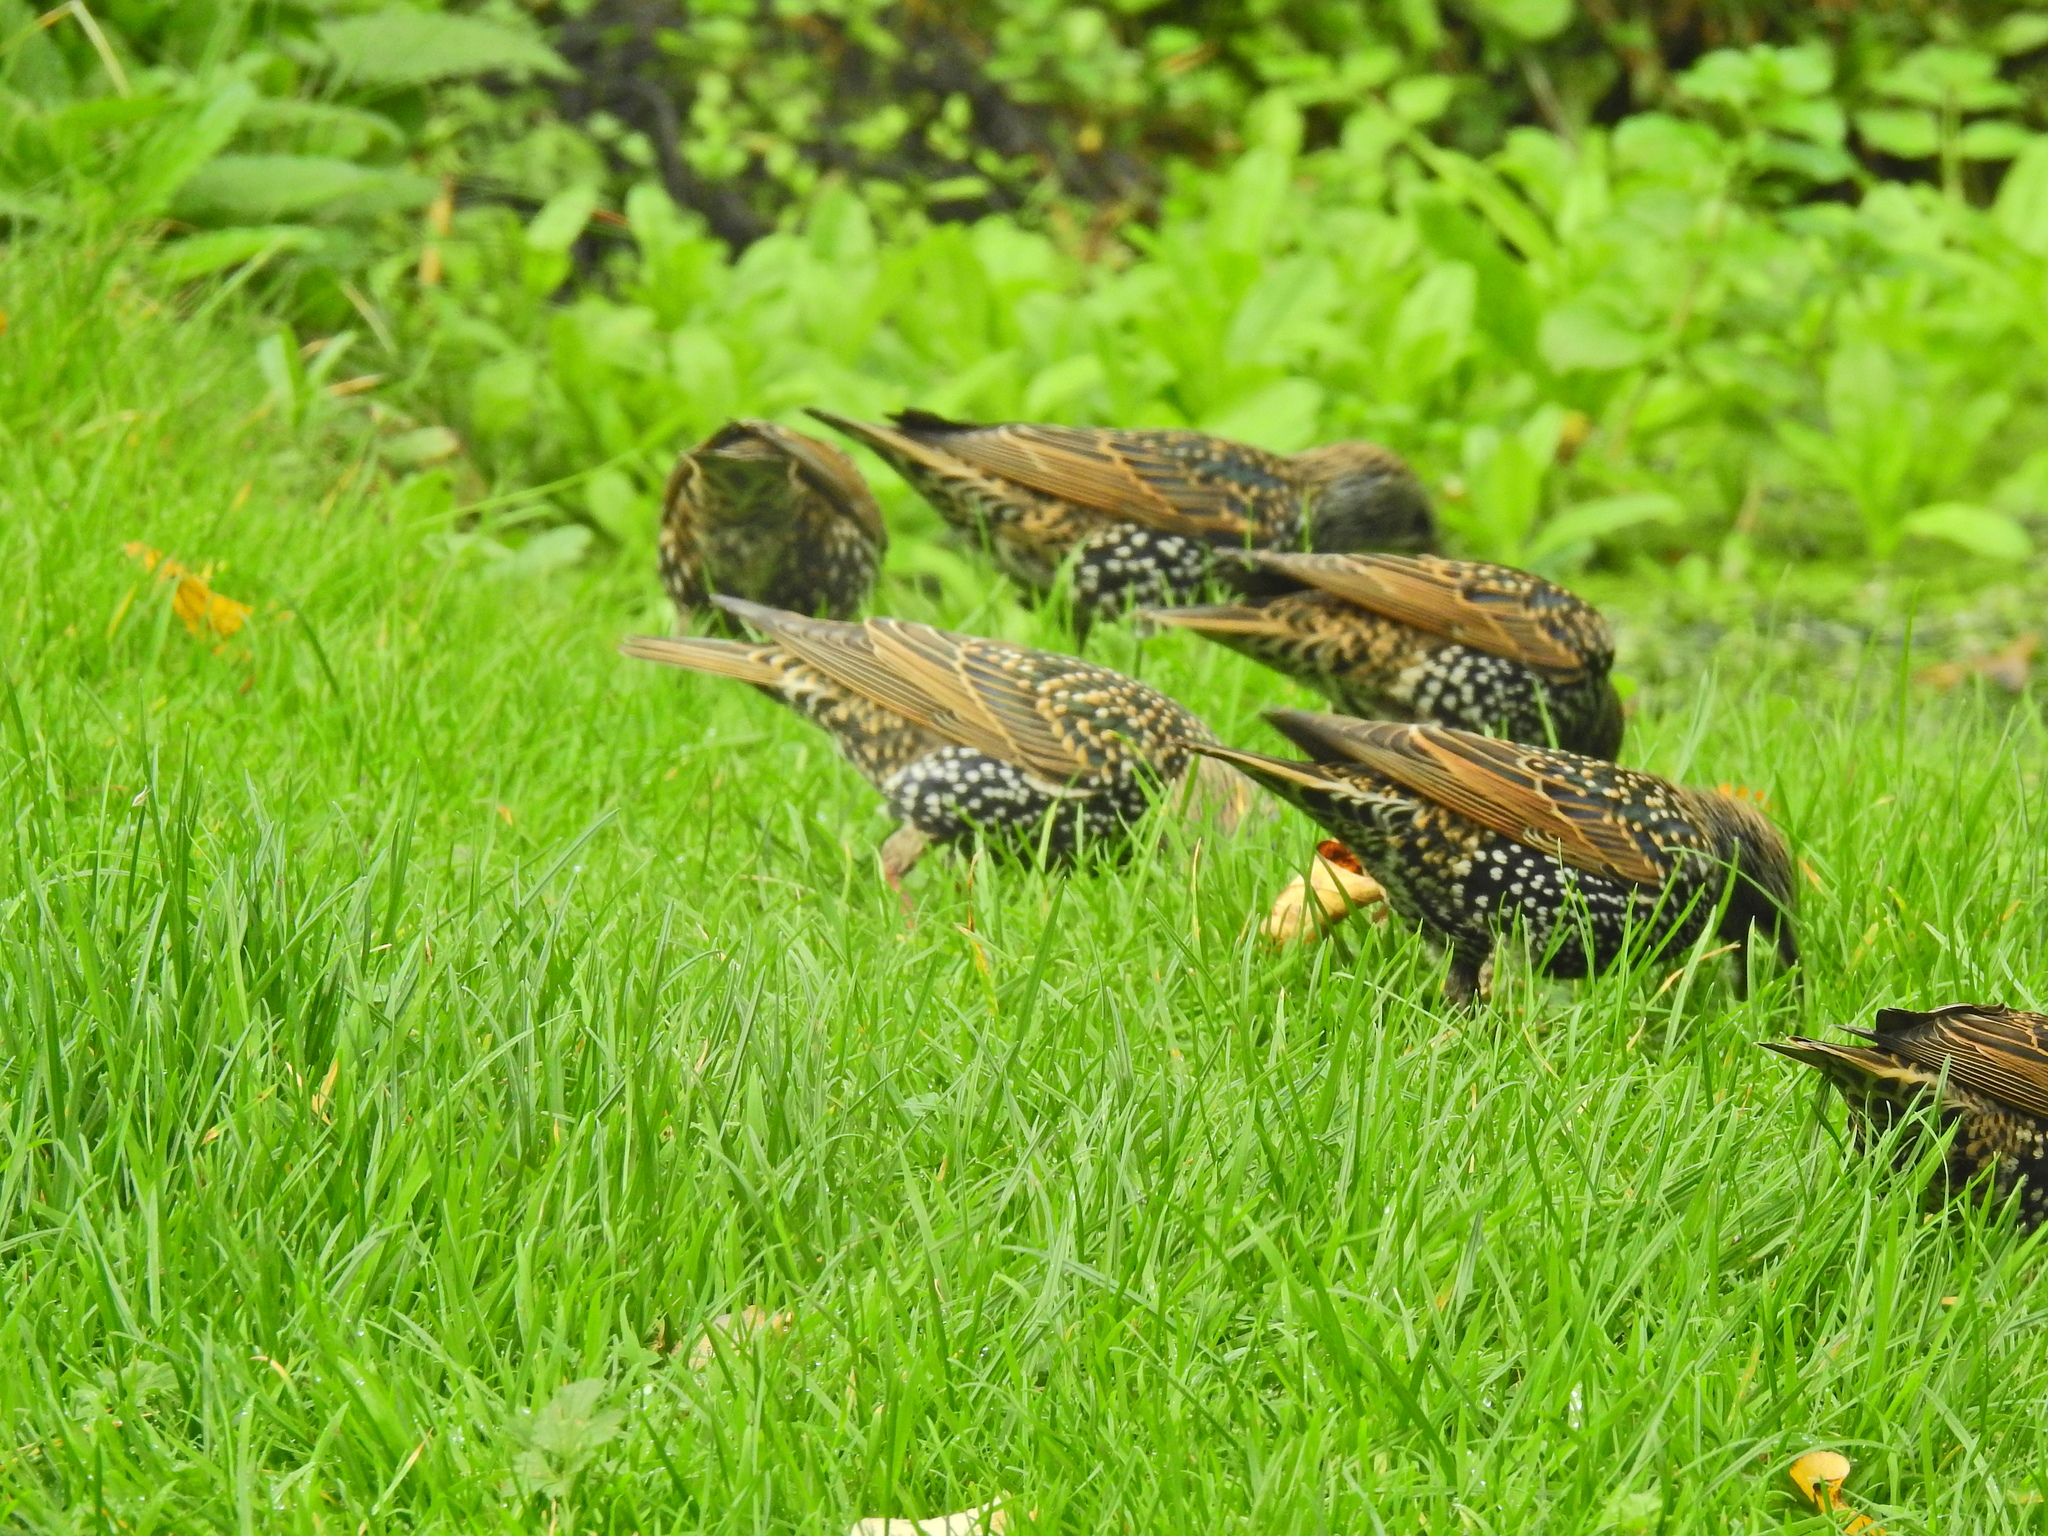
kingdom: Animalia
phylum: Chordata
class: Aves
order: Passeriformes
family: Sturnidae
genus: Sturnus
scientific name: Sturnus vulgaris
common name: Common starling
